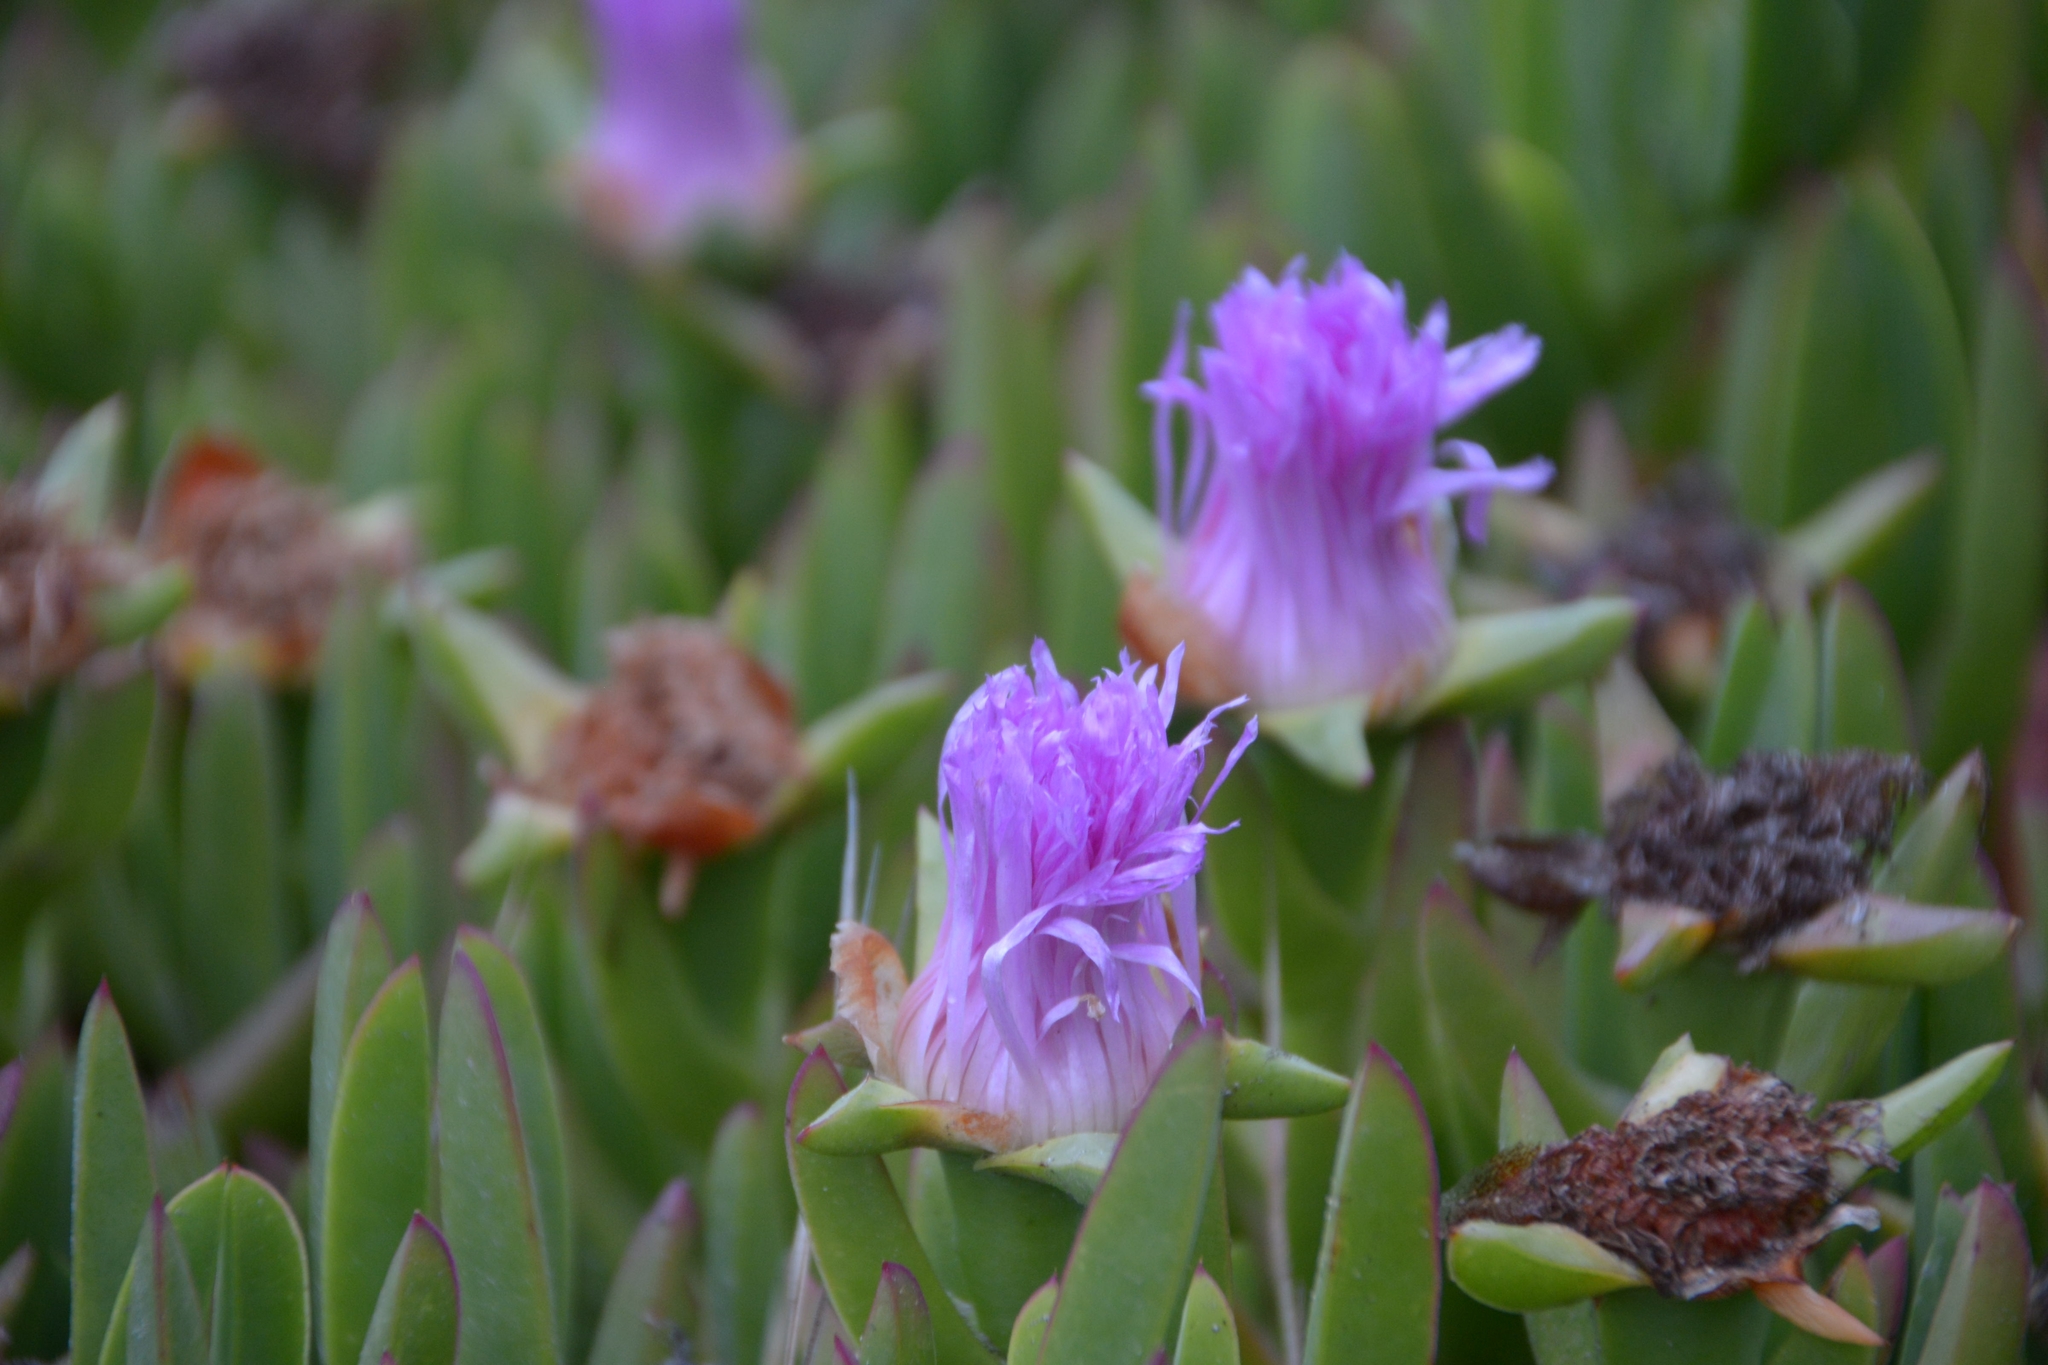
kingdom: Plantae
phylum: Tracheophyta
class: Magnoliopsida
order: Caryophyllales
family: Aizoaceae
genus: Carpobrotus
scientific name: Carpobrotus chilensis
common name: Sea fig
